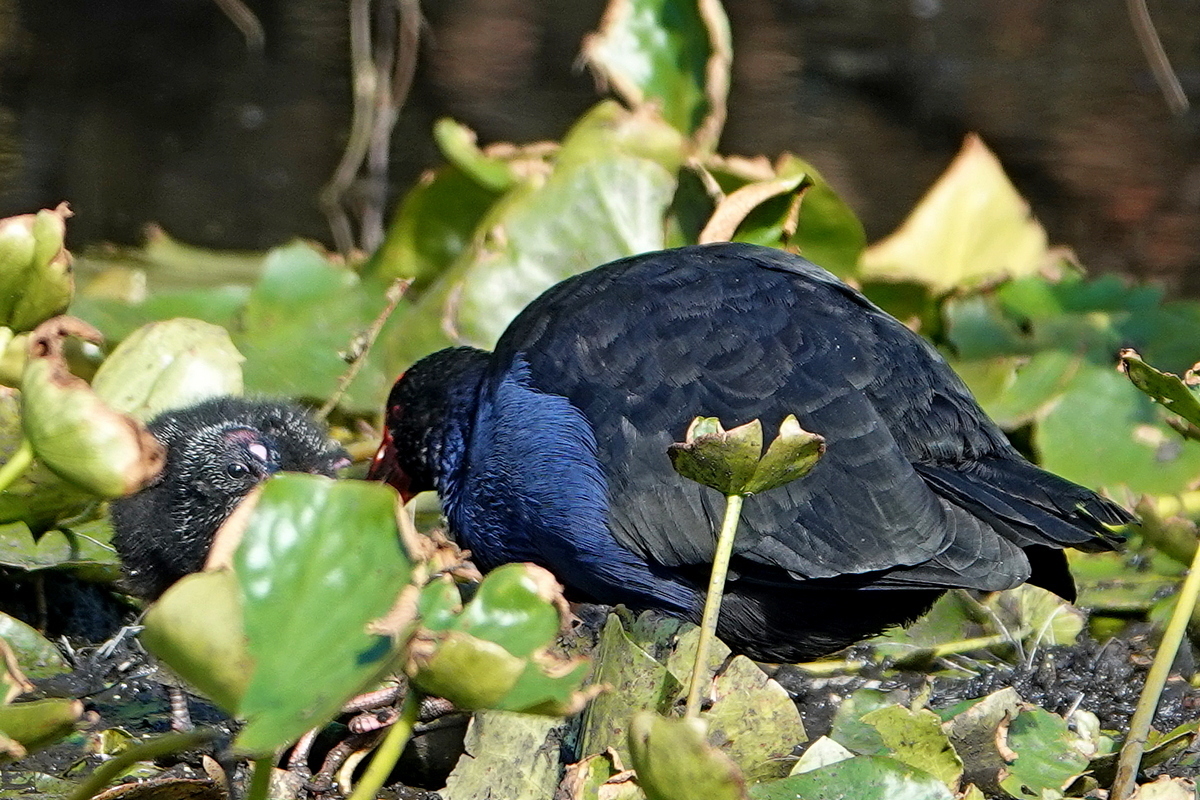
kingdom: Animalia
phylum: Chordata
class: Aves
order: Gruiformes
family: Rallidae
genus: Porphyrio
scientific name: Porphyrio melanotus
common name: Australasian swamphen
